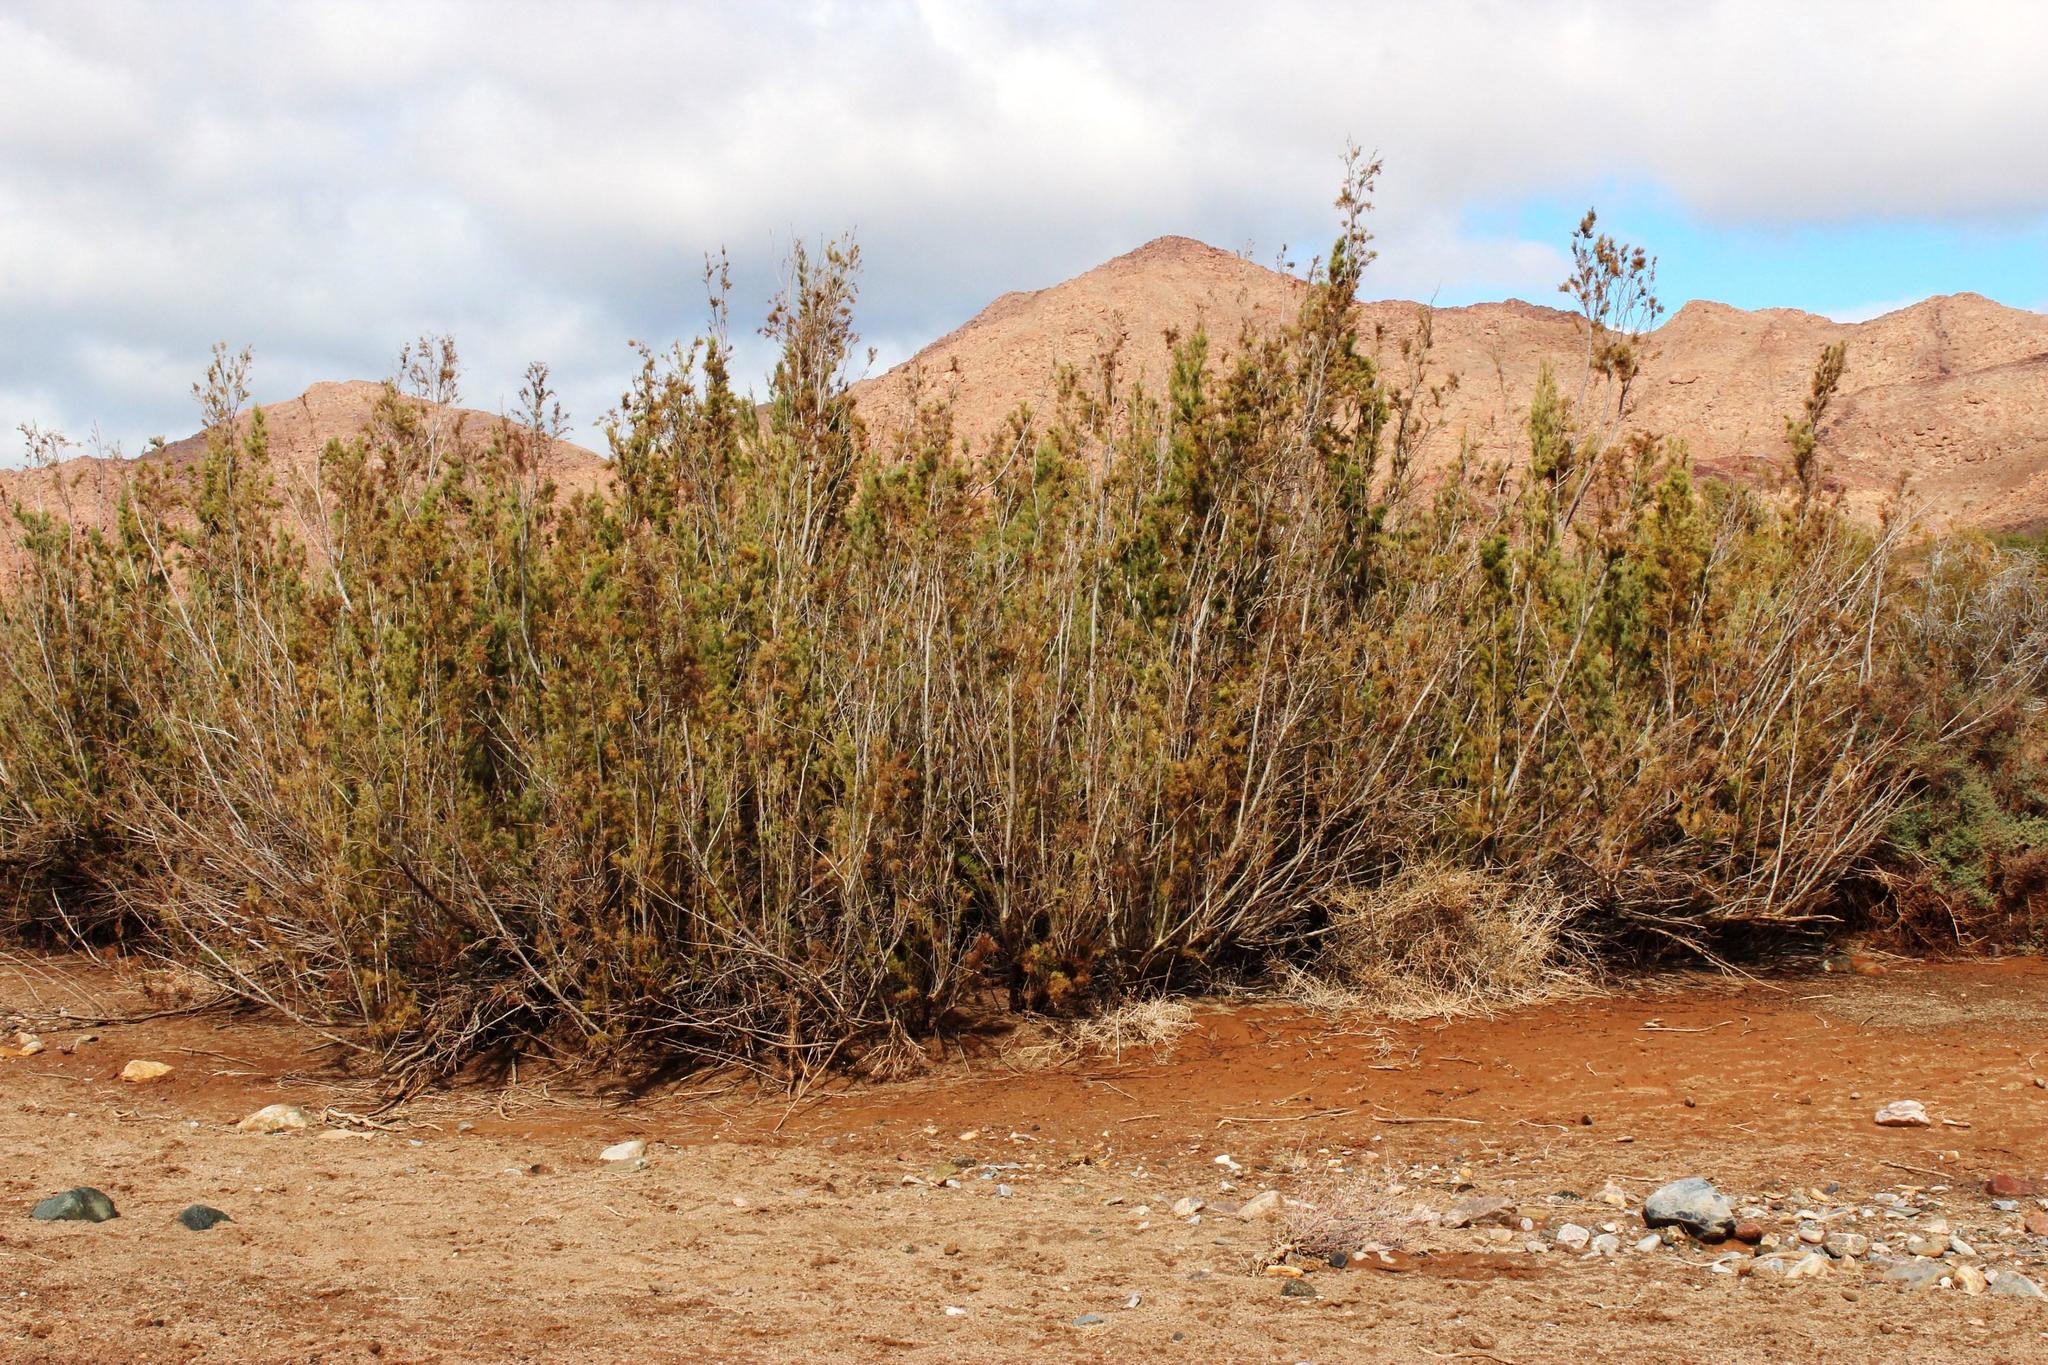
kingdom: Plantae
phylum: Tracheophyta
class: Magnoliopsida
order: Caryophyllales
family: Tamaricaceae
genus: Tamarix
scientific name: Tamarix usneoides
